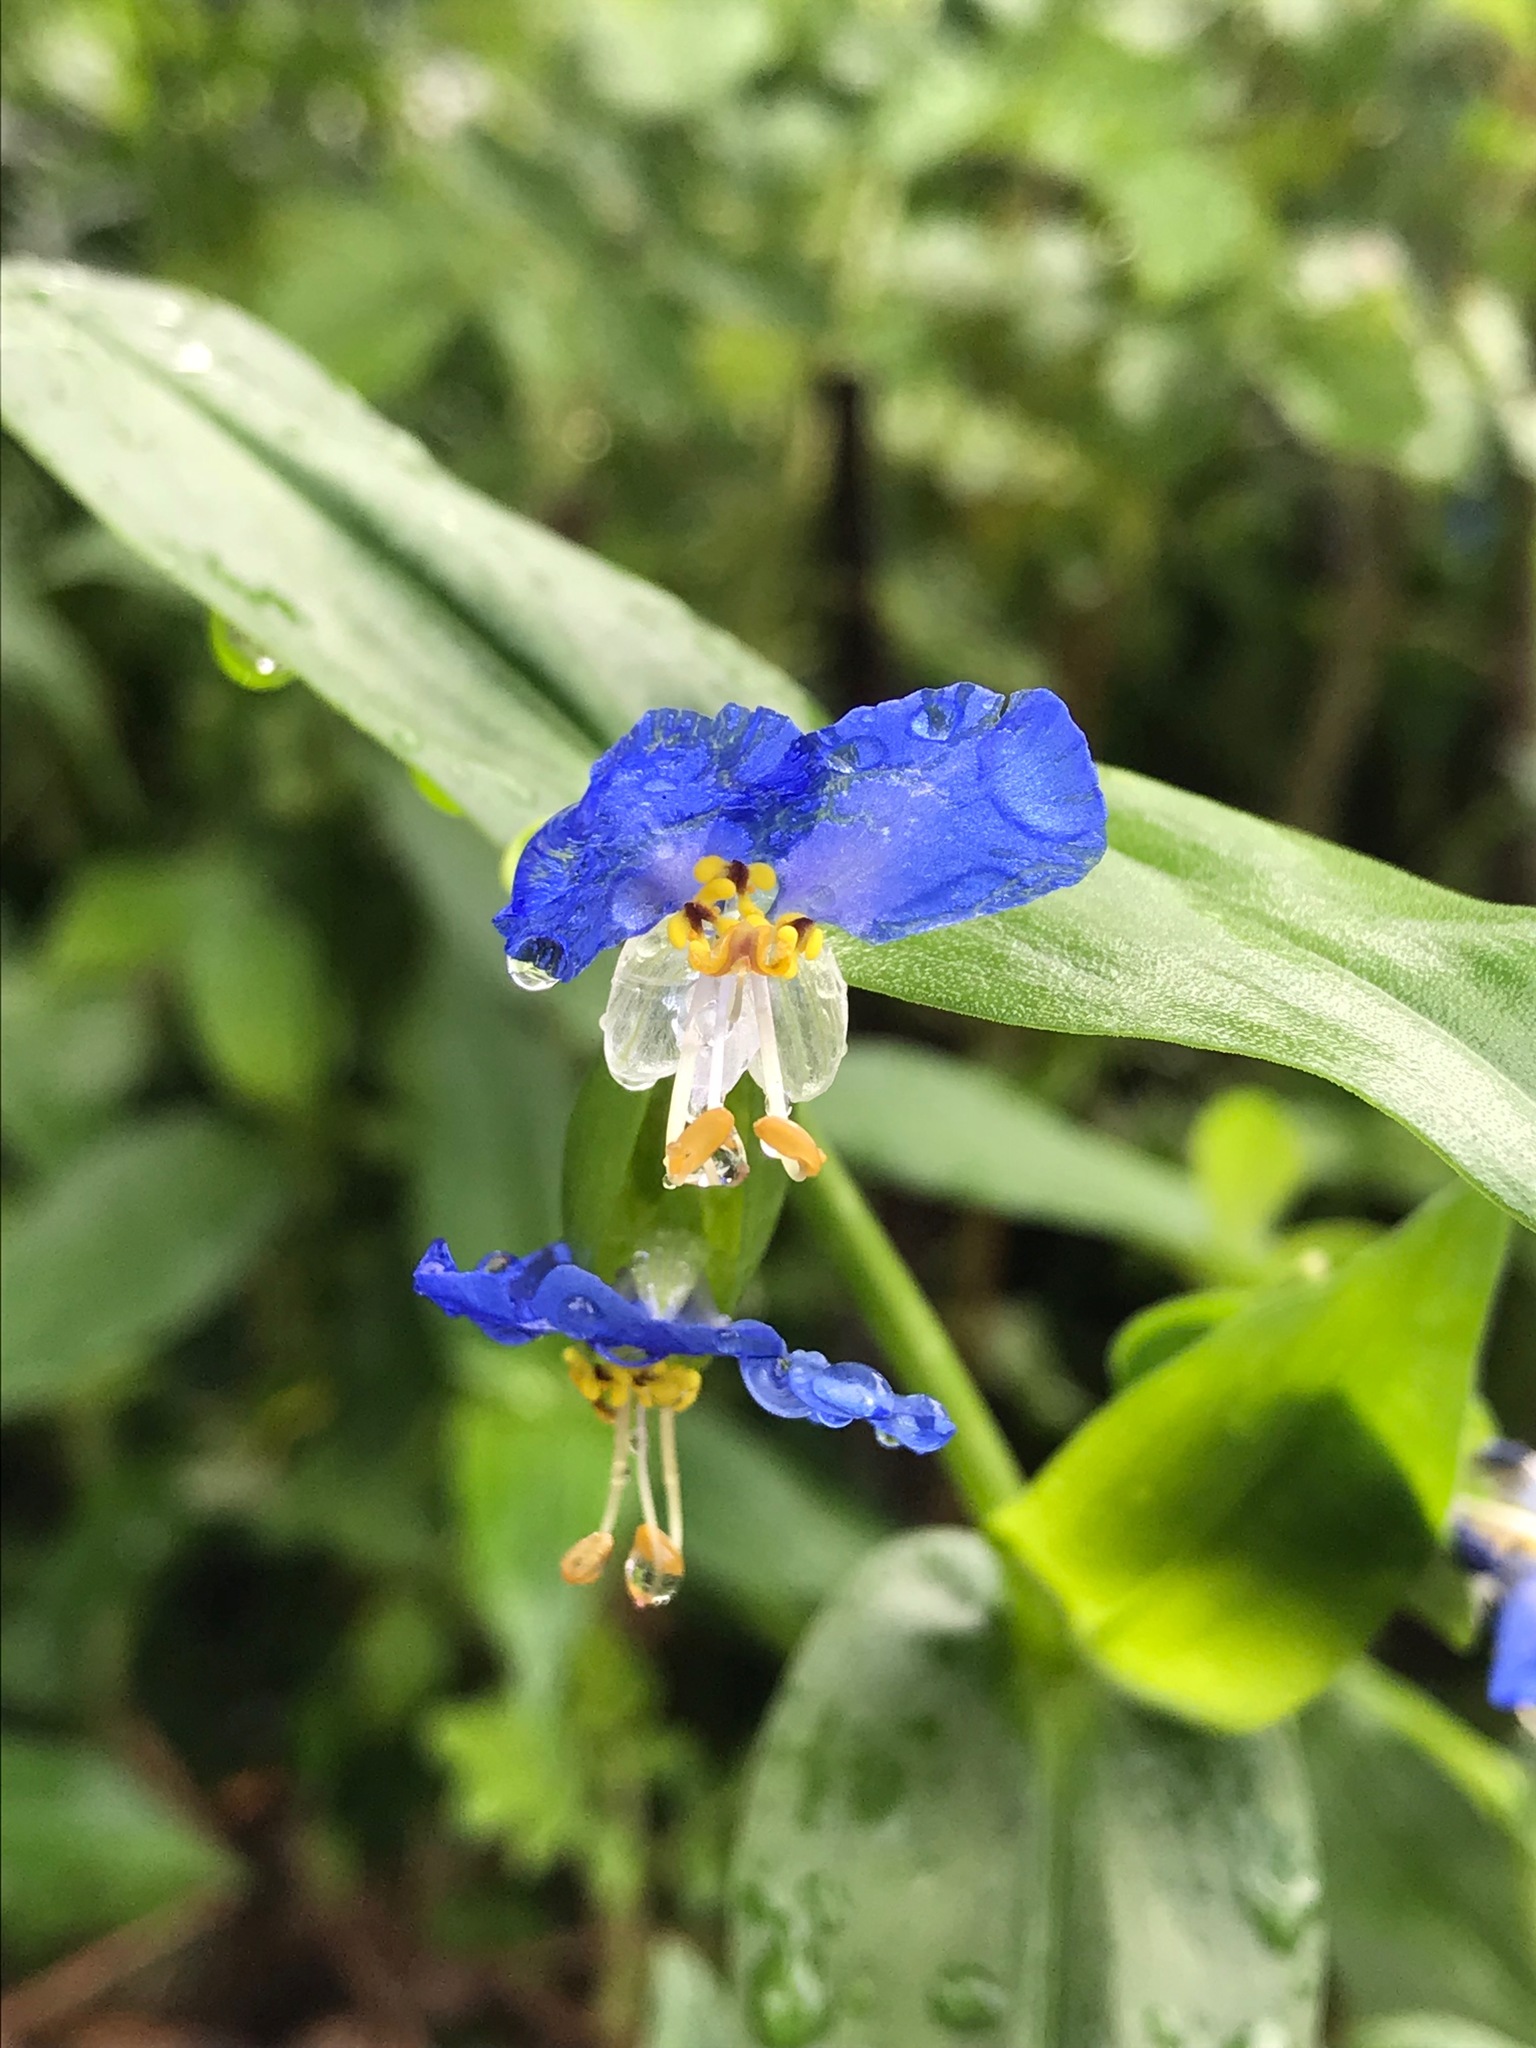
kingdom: Plantae
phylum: Tracheophyta
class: Liliopsida
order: Commelinales
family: Commelinaceae
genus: Commelina
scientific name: Commelina communis
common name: Asiatic dayflower
